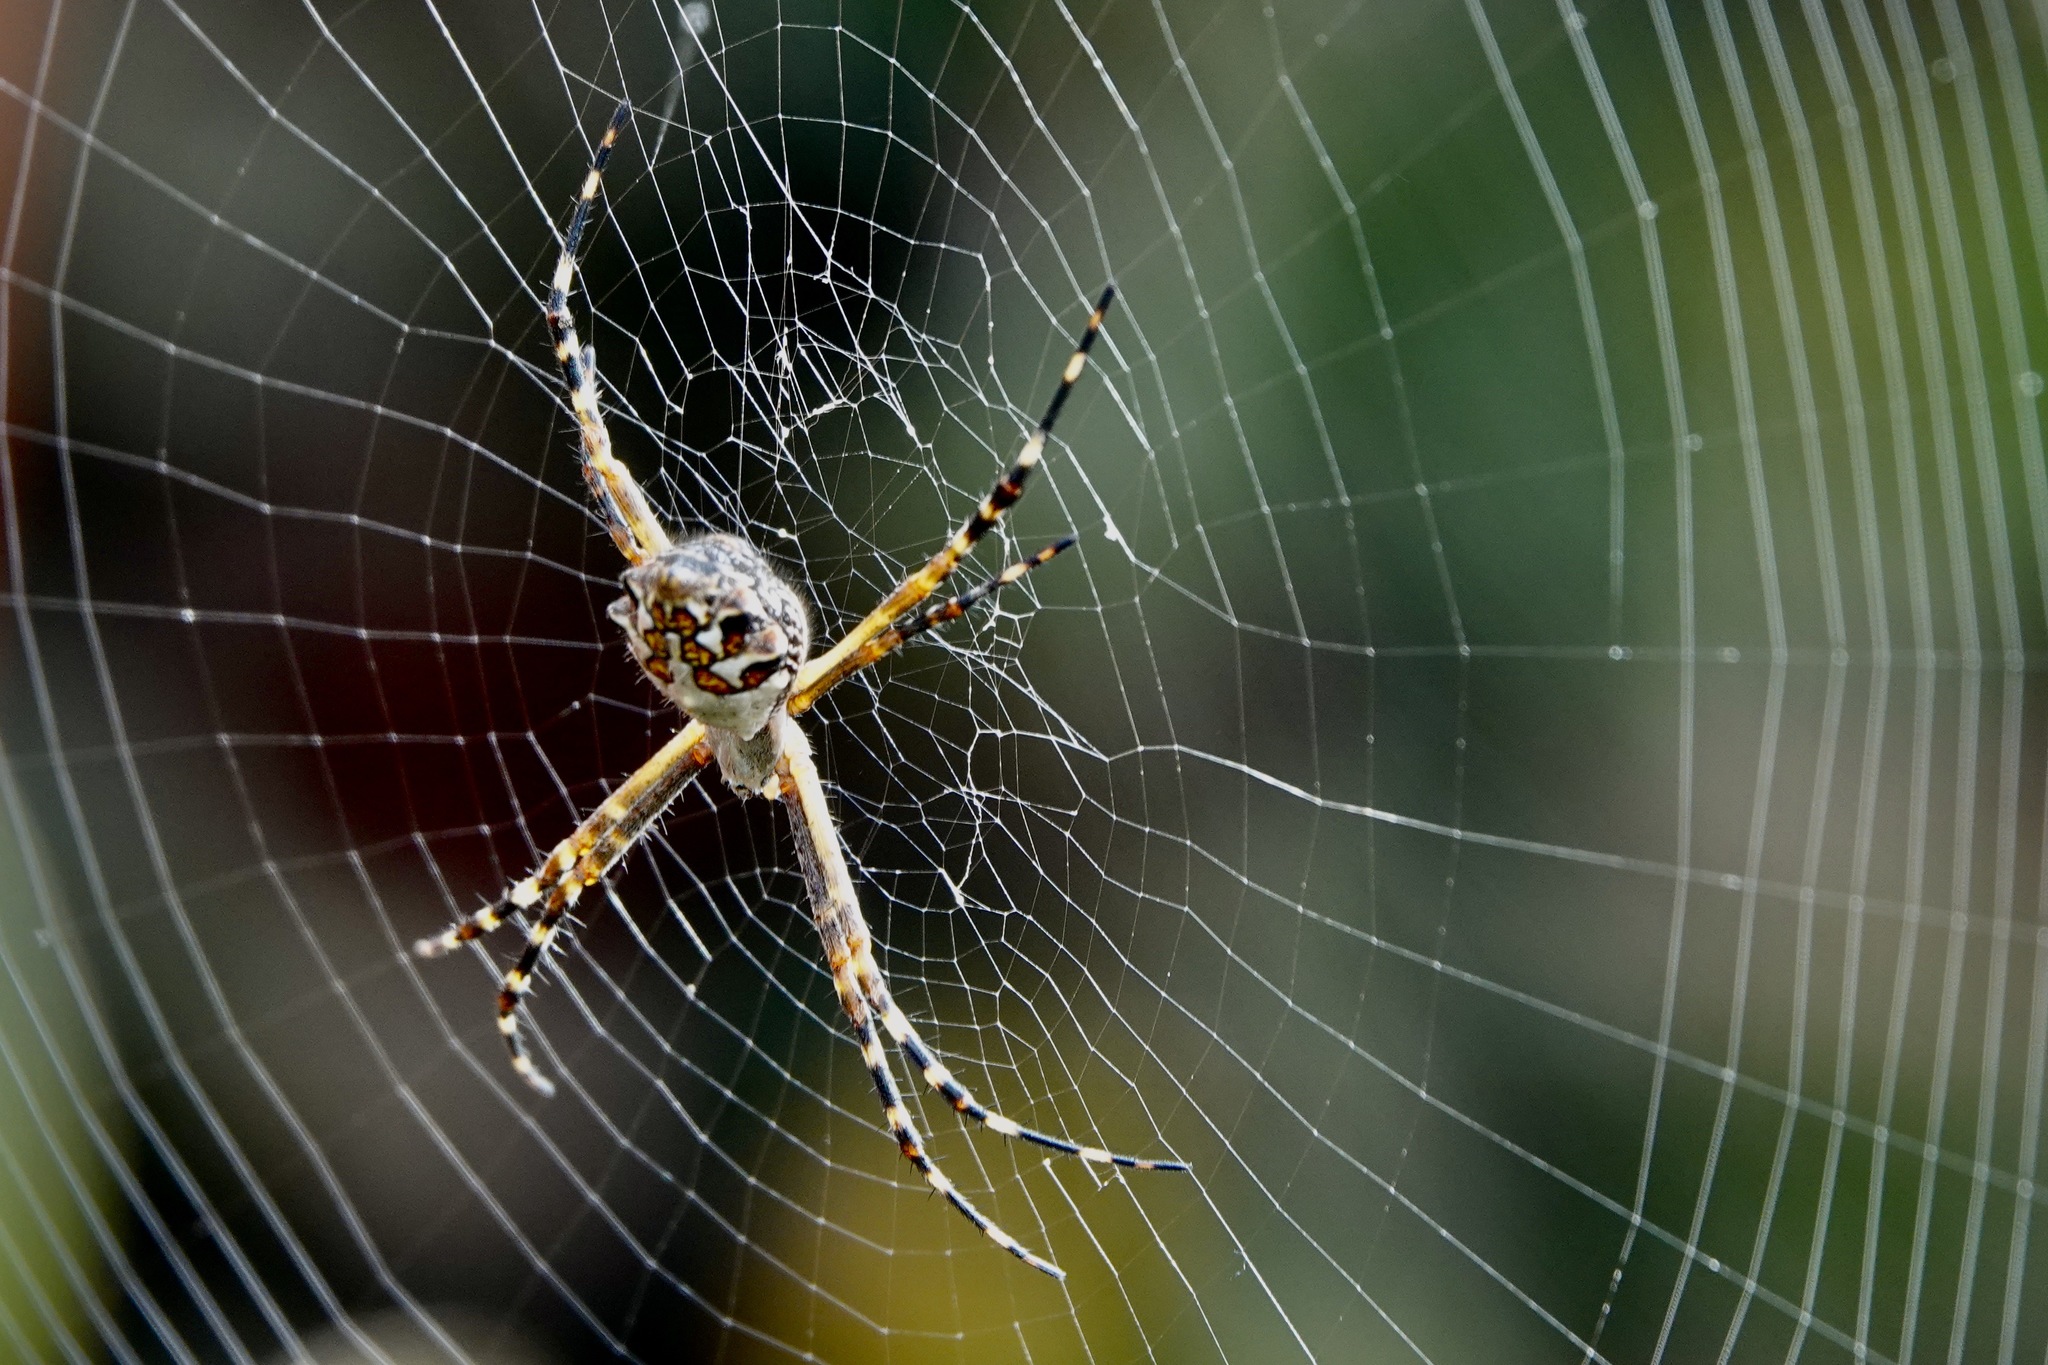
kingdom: Animalia
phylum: Arthropoda
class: Arachnida
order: Araneae
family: Araneidae
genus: Argiope
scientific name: Argiope argentata
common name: Orb weavers
